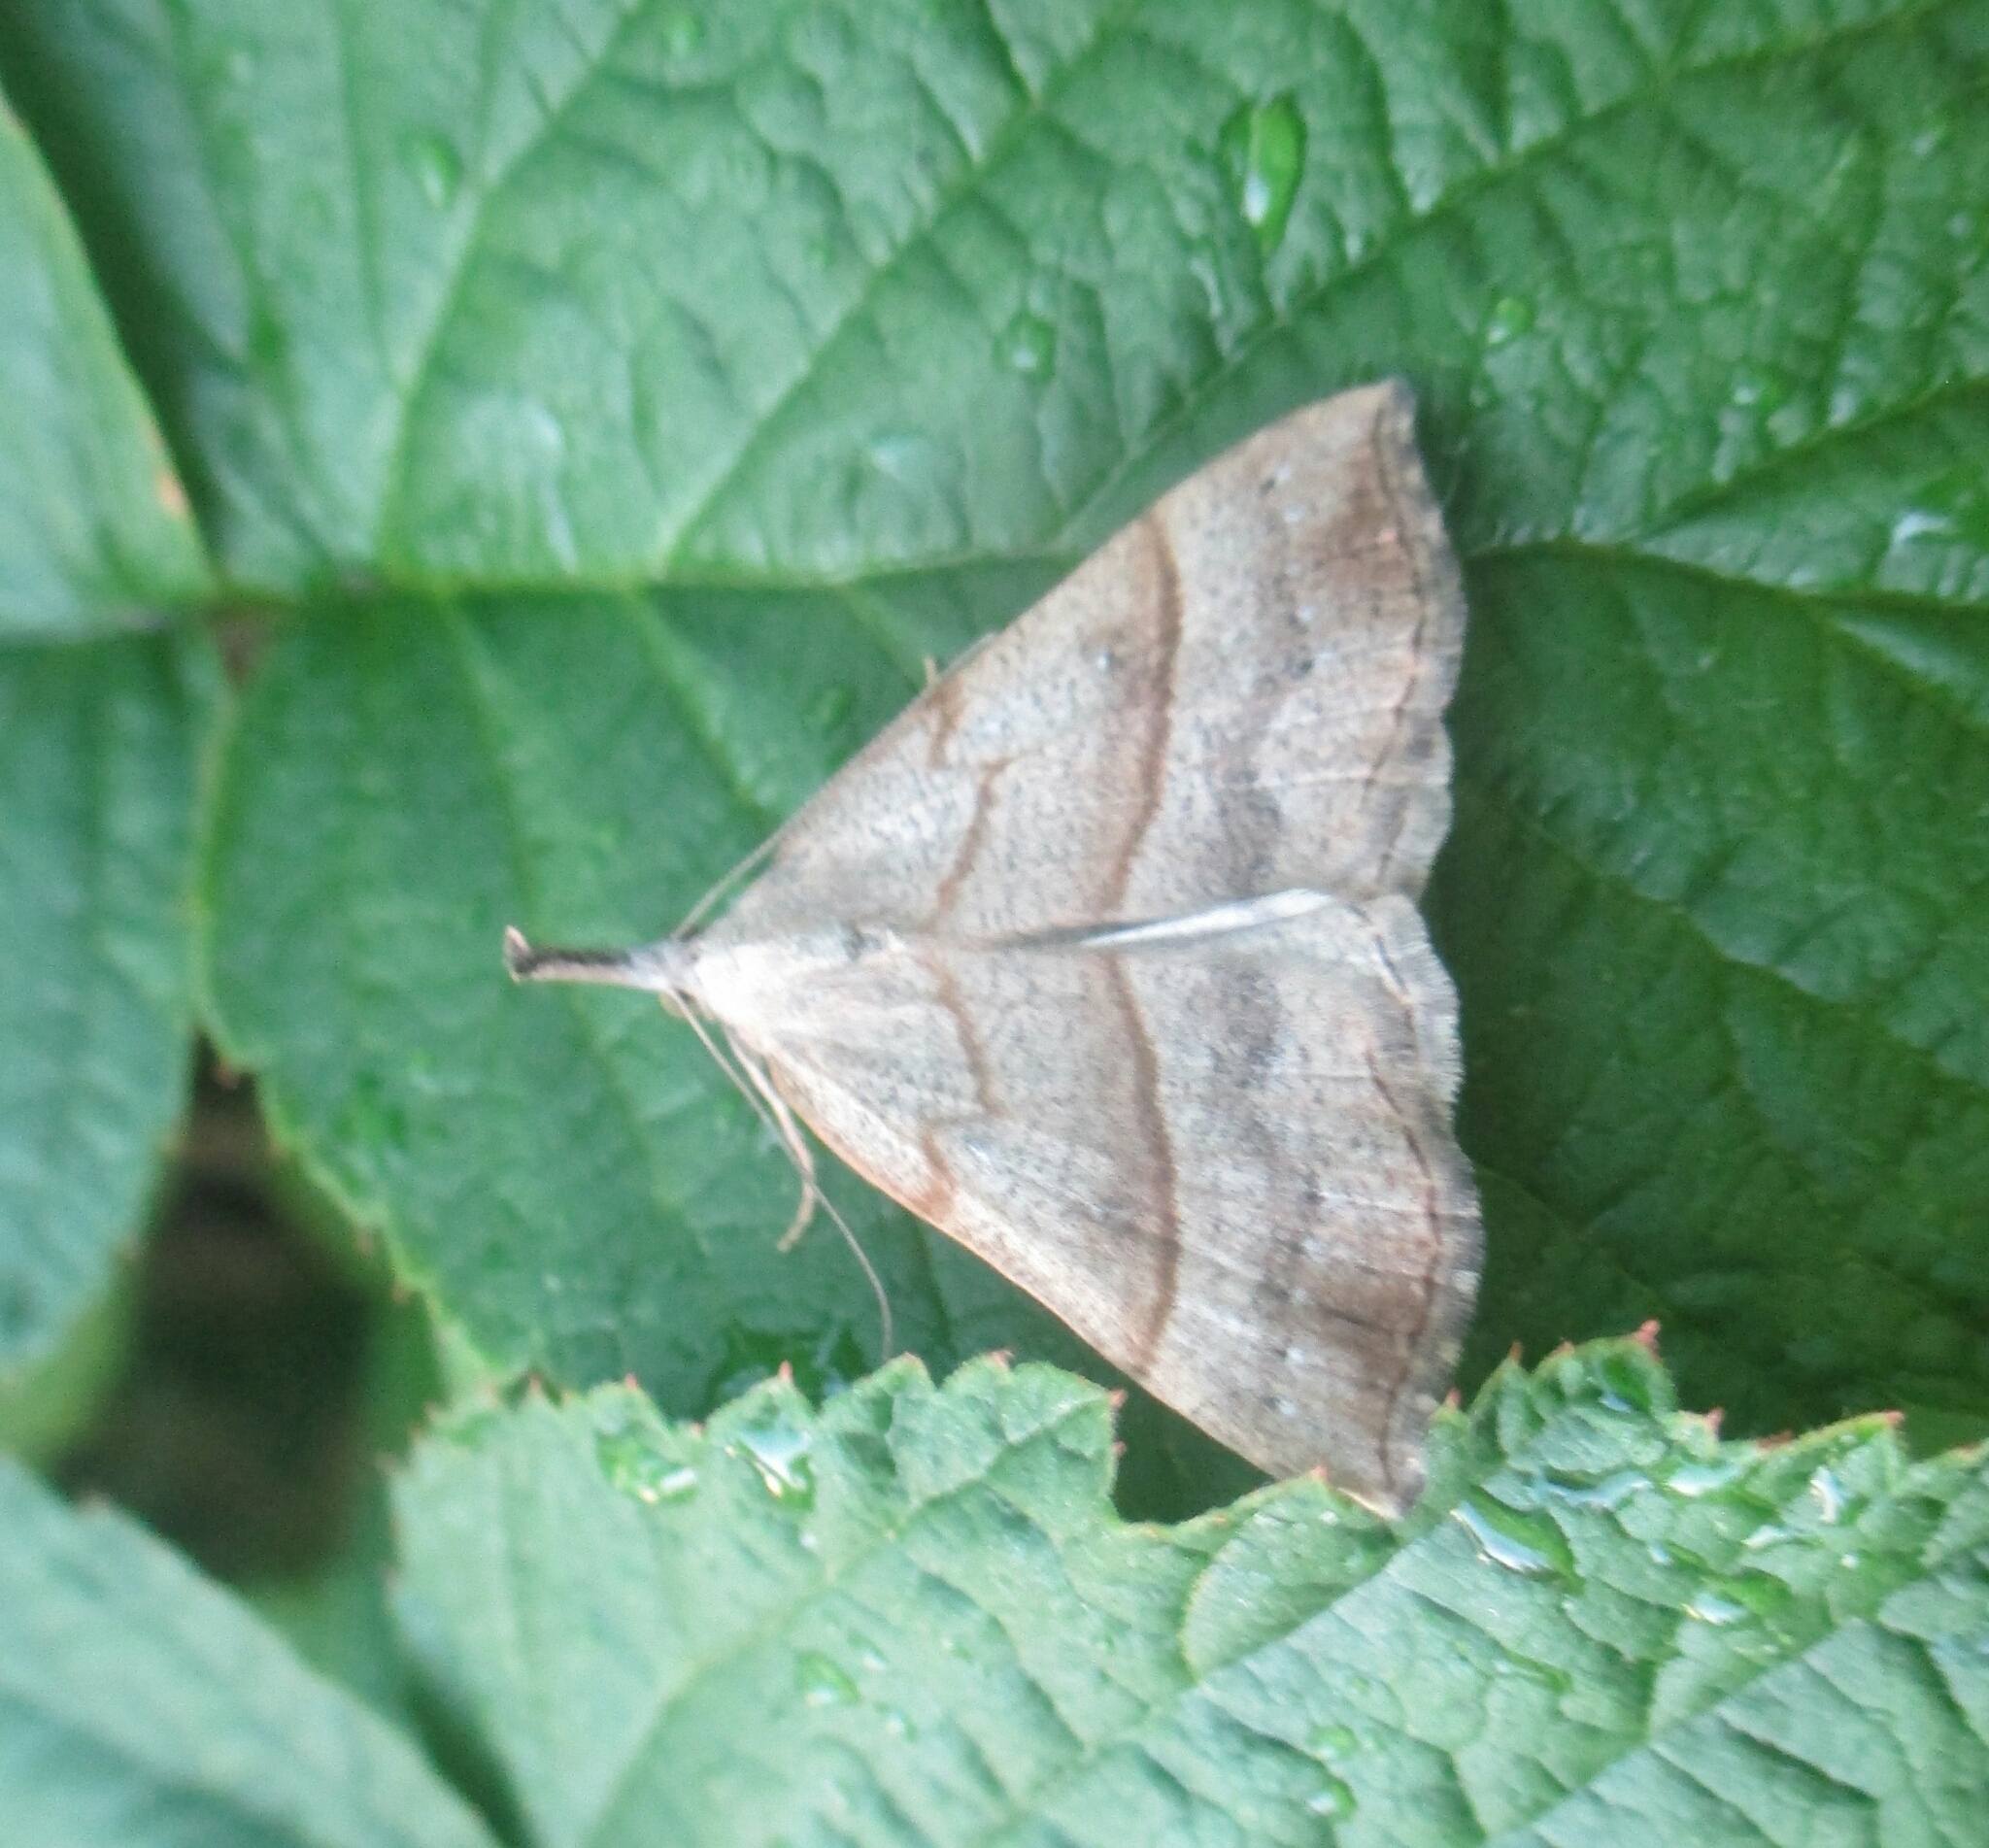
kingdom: Animalia
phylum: Arthropoda
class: Insecta
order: Lepidoptera
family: Erebidae
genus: Hypena
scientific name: Hypena proboscidalis
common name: Snout
